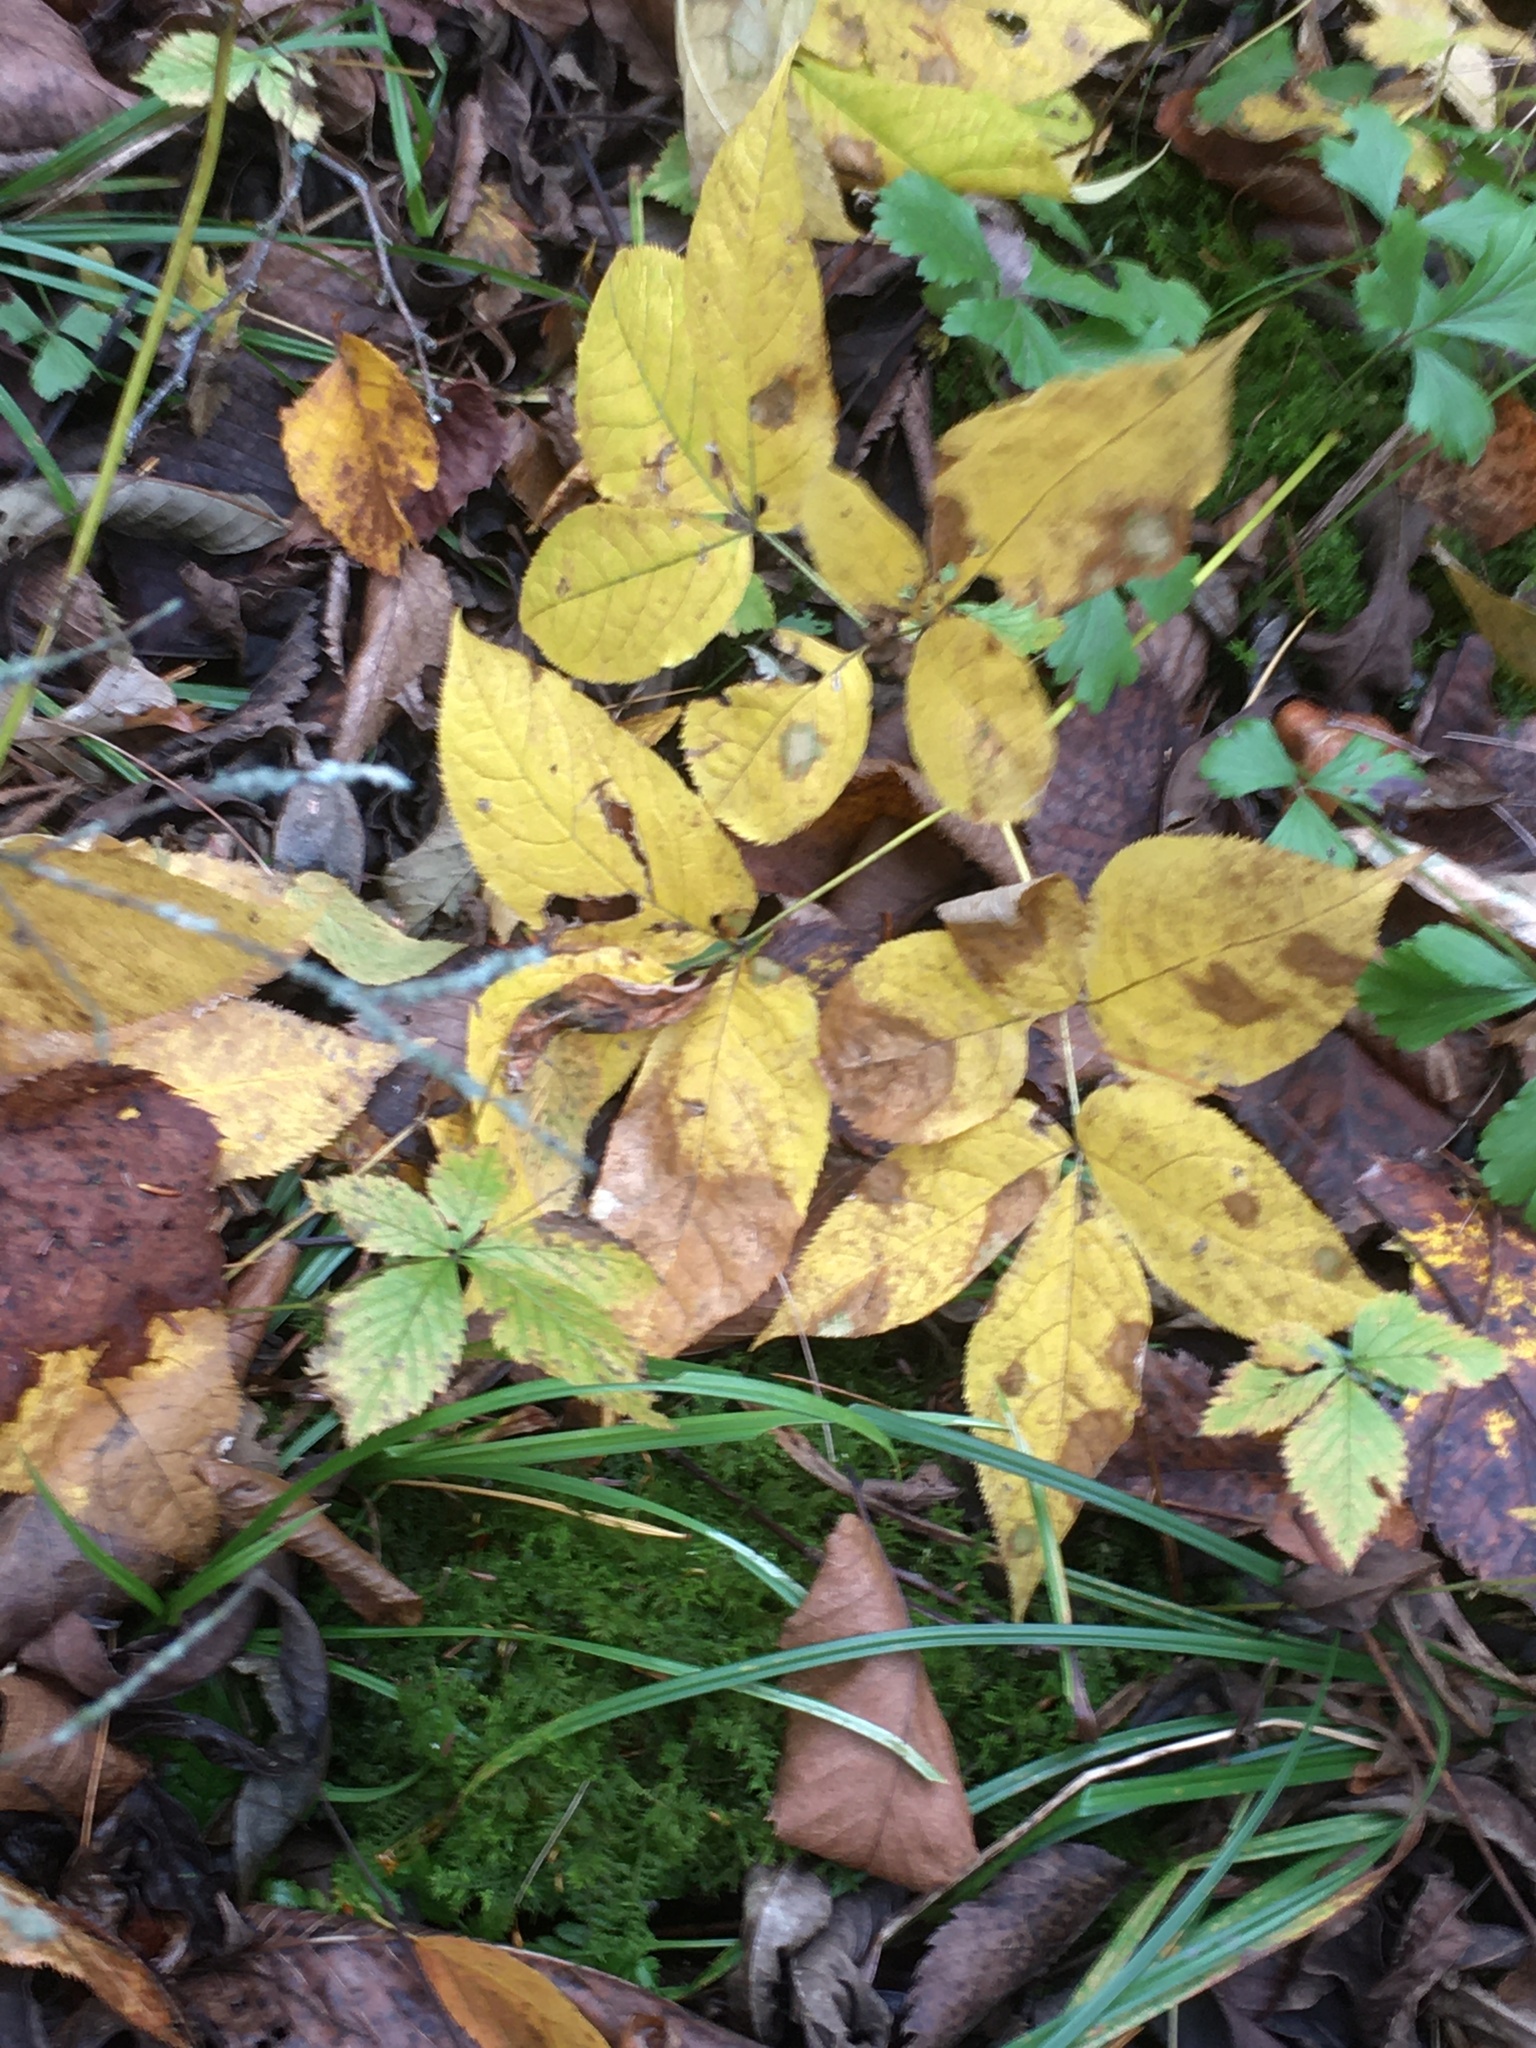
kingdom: Plantae
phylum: Tracheophyta
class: Magnoliopsida
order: Apiales
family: Araliaceae
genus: Aralia
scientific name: Aralia nudicaulis
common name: Wild sarsaparilla
